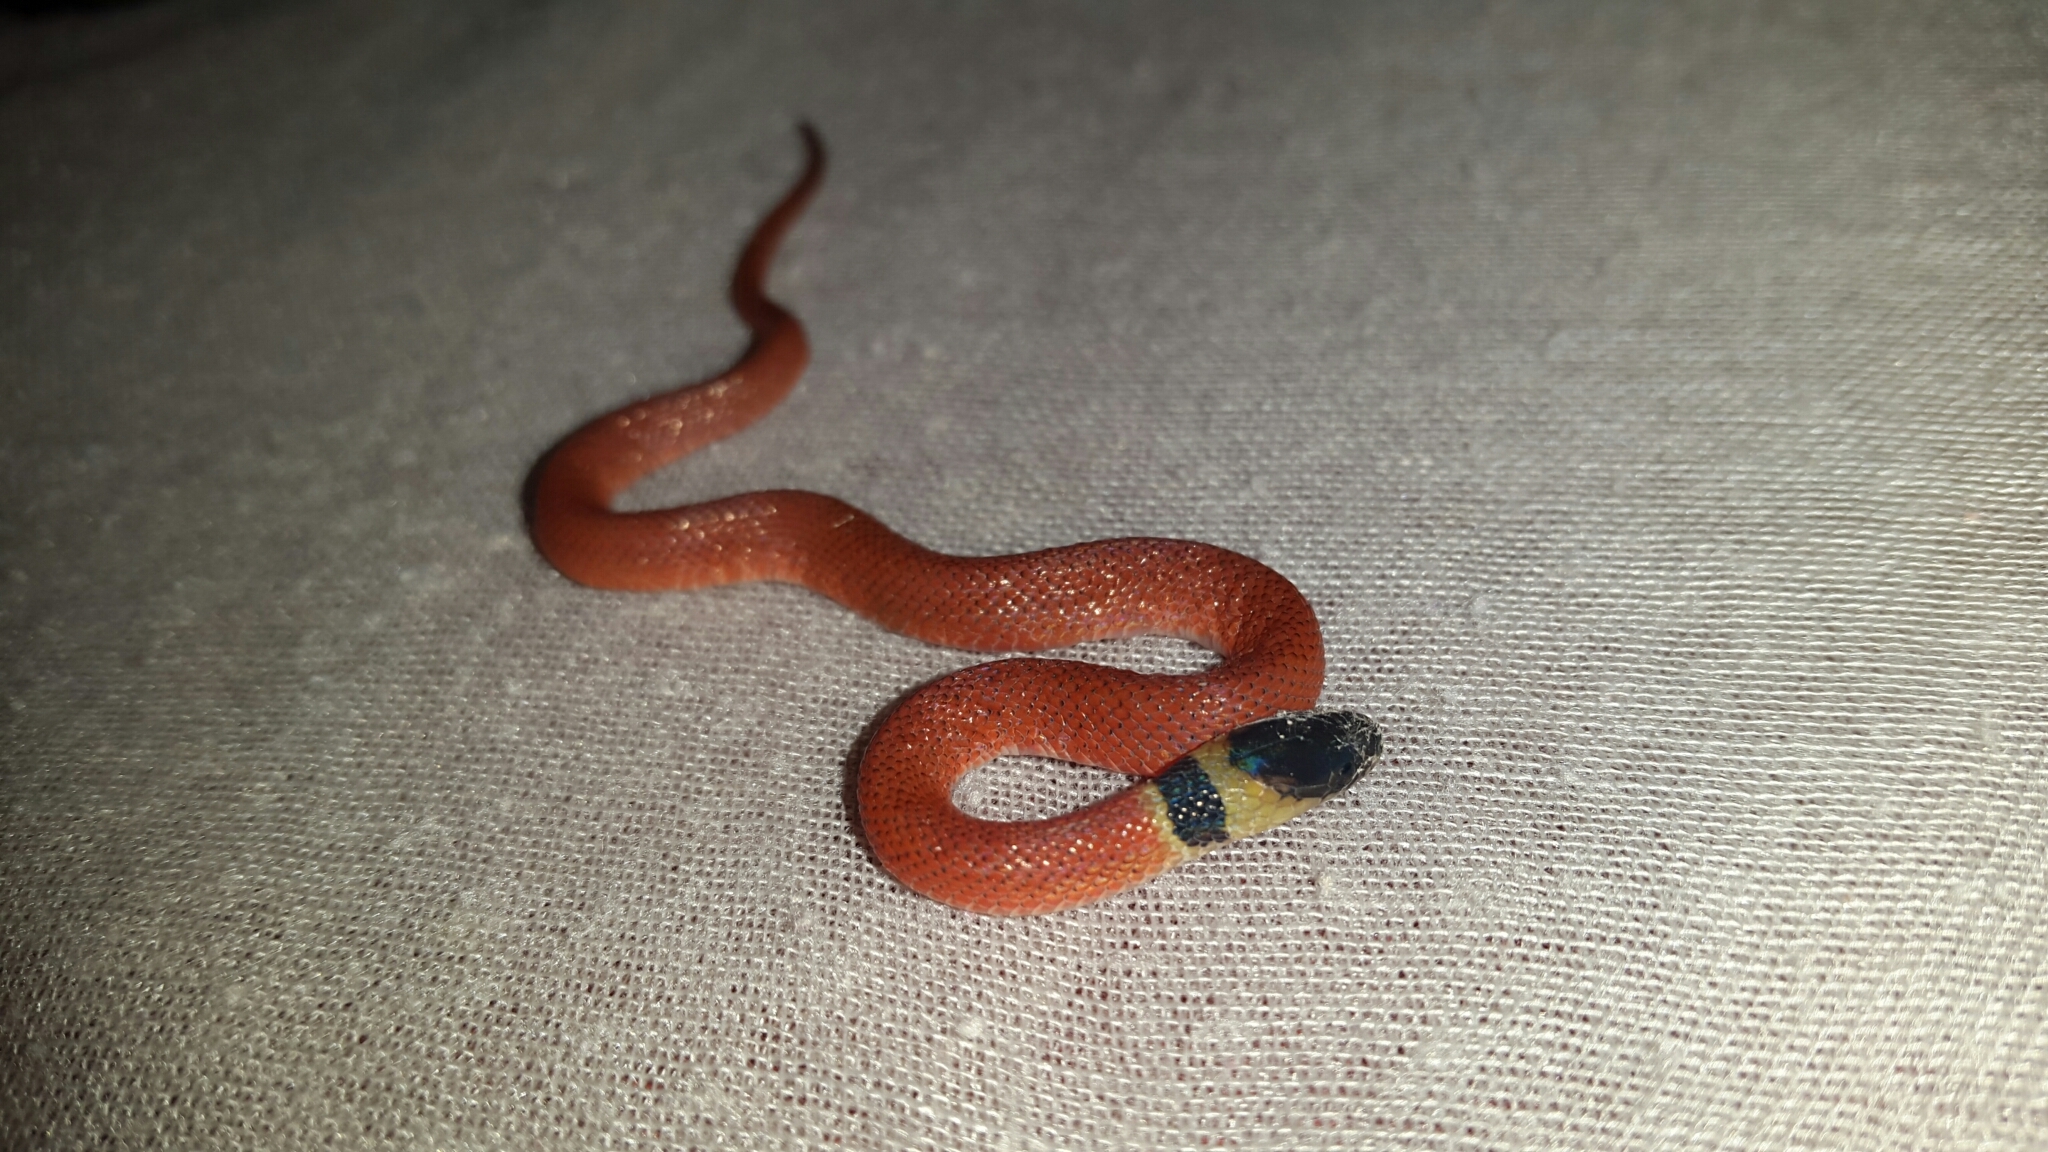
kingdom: Animalia
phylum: Chordata
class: Squamata
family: Colubridae
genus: Ninia
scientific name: Ninia sebae
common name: Redback coffee snake
